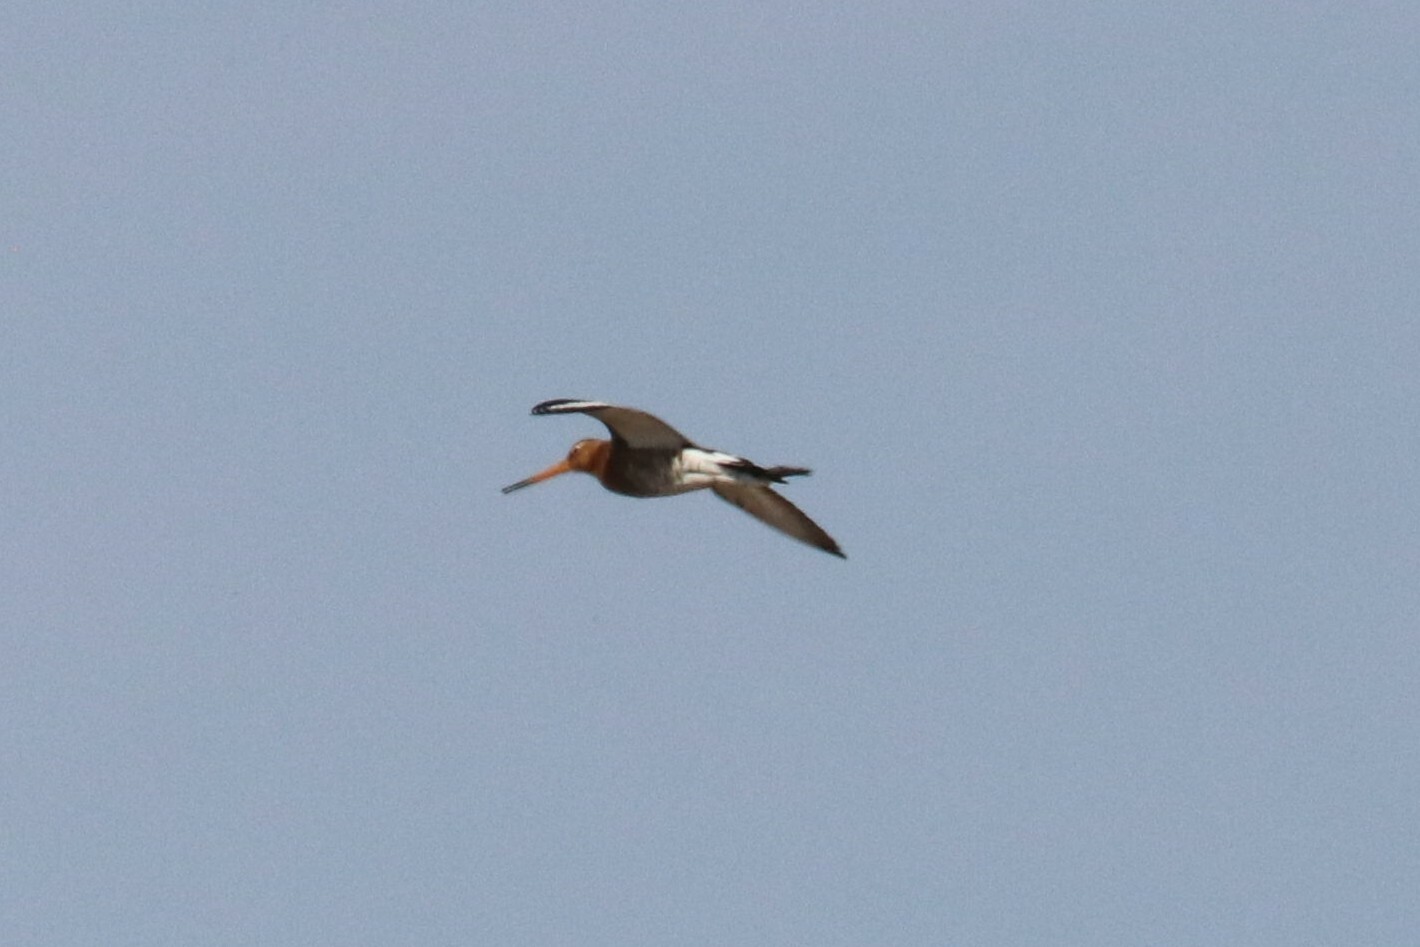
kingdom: Animalia
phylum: Chordata
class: Aves
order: Charadriiformes
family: Scolopacidae
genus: Limosa
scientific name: Limosa limosa
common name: Black-tailed godwit
